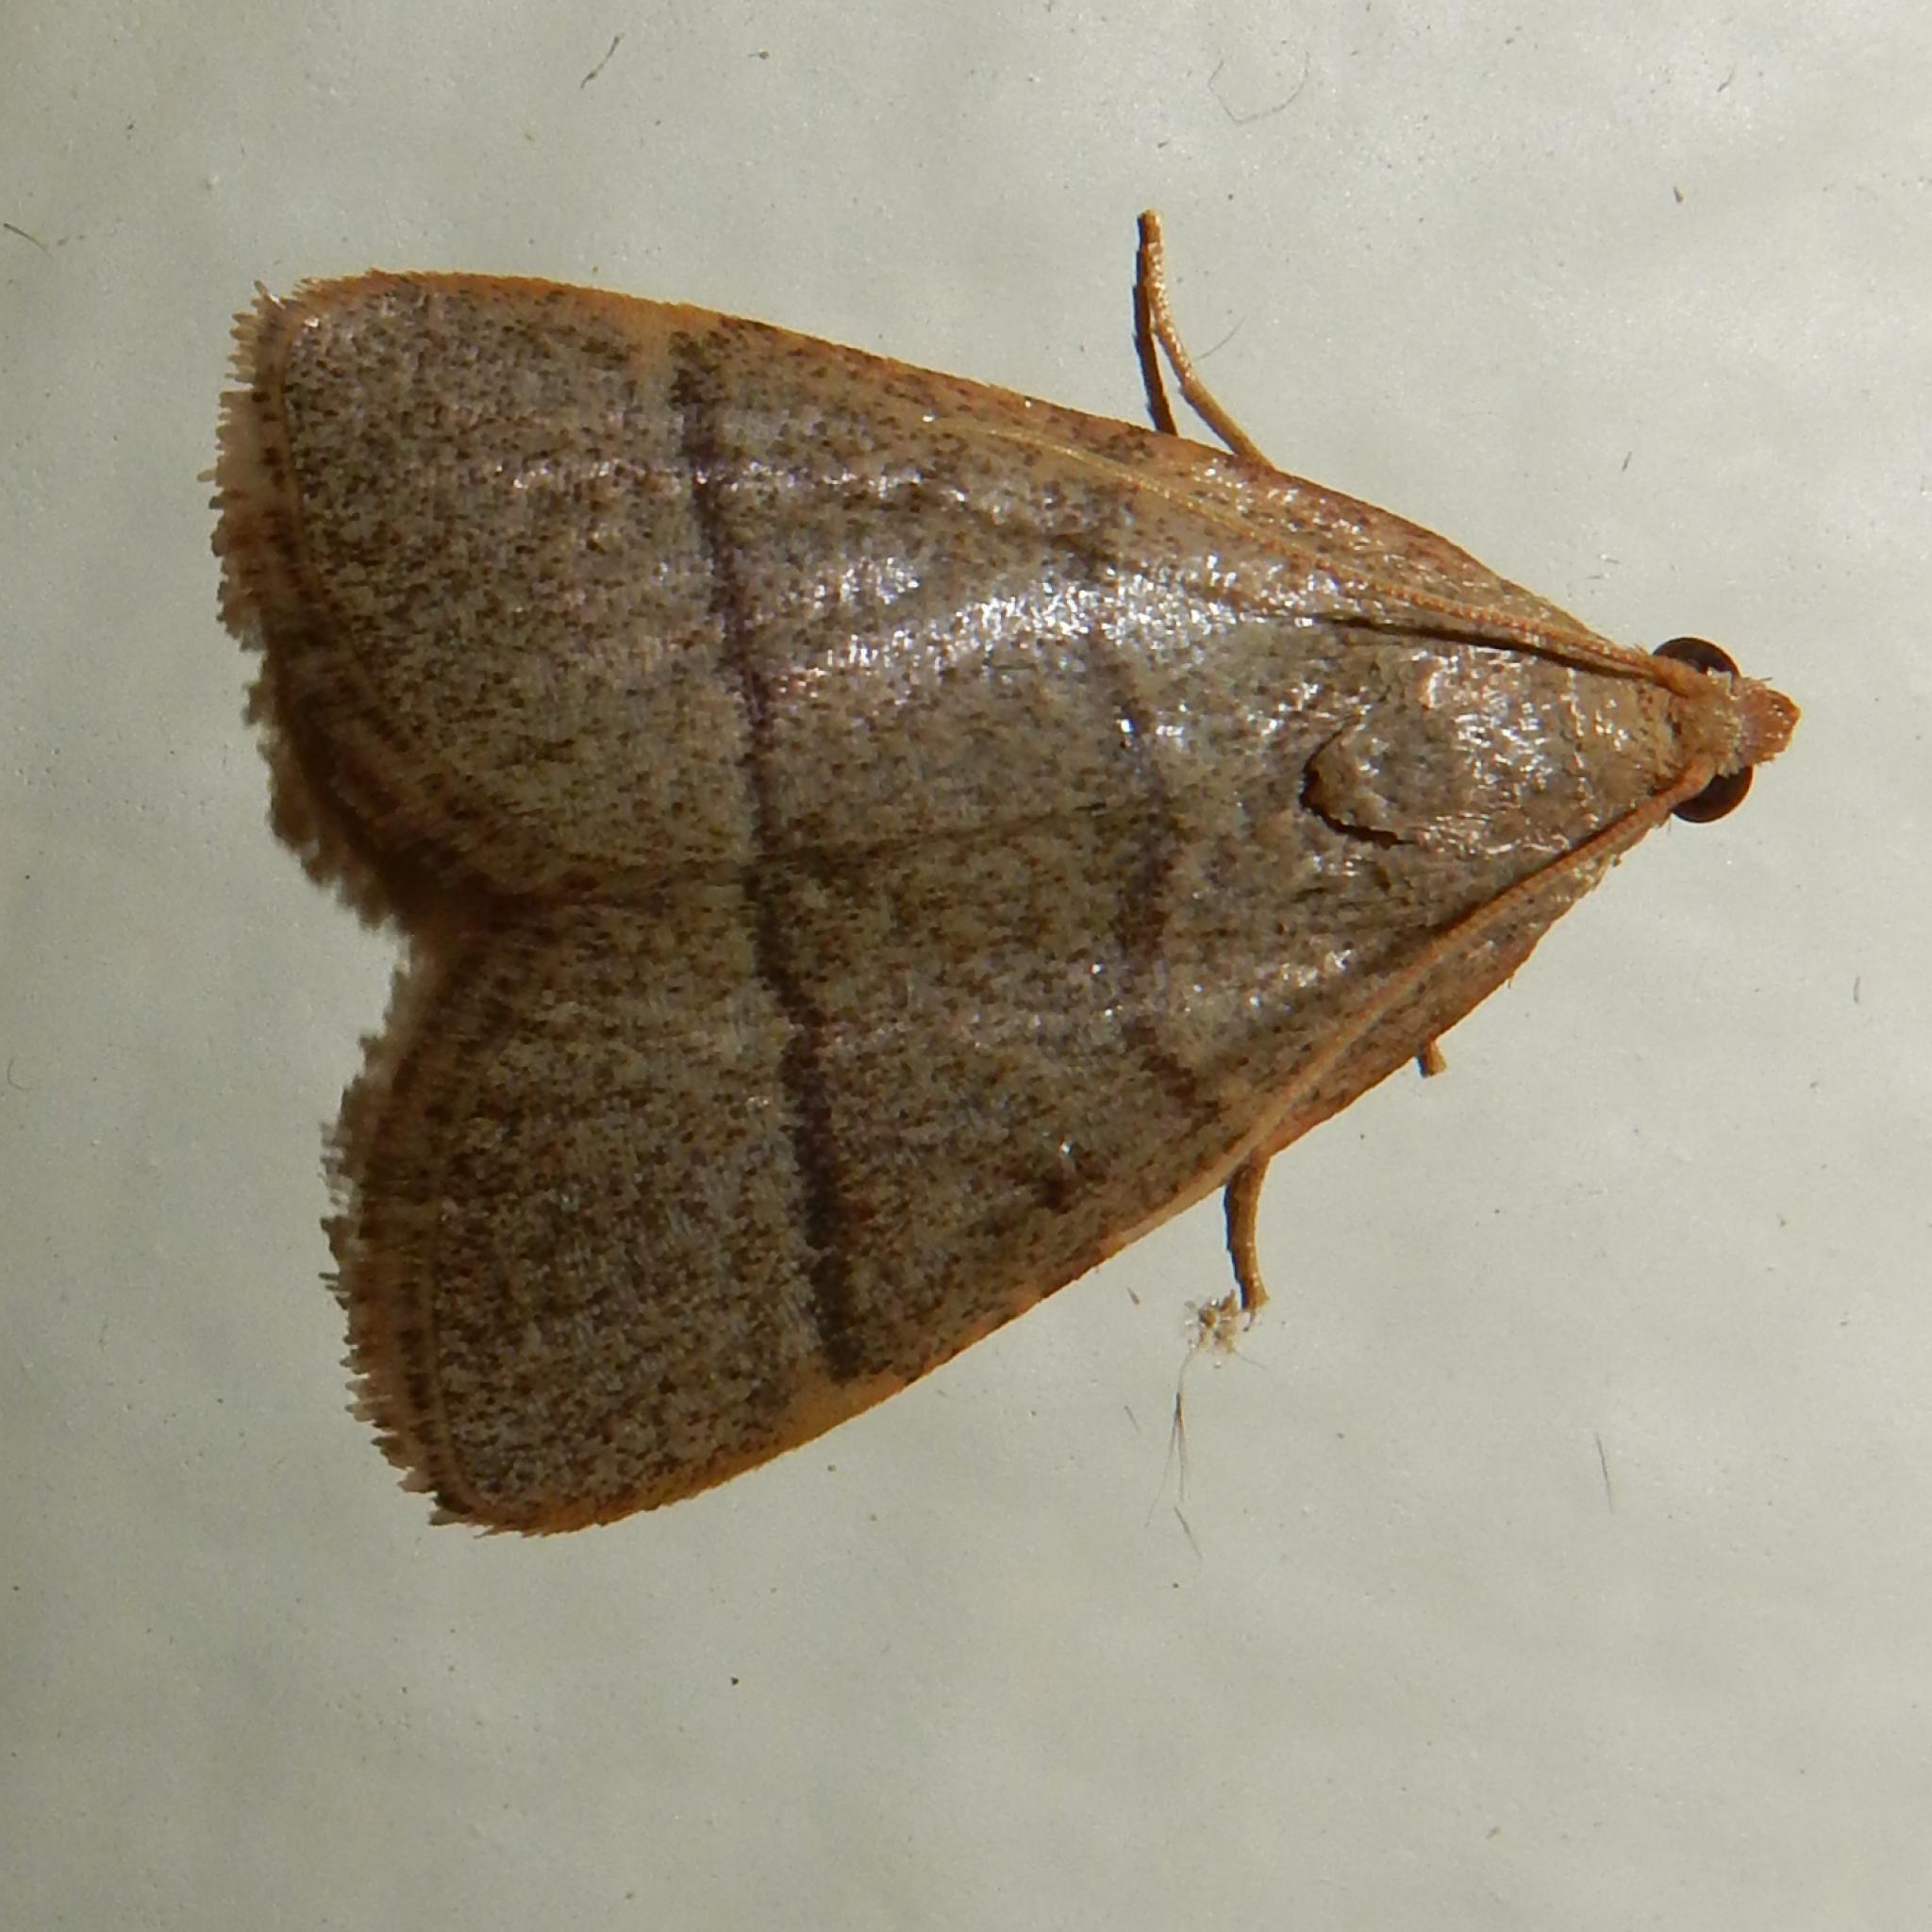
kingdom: Animalia
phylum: Arthropoda
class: Insecta
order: Lepidoptera
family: Pyralidae
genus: Hypsopygia
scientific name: Hypsopygia nostralis
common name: Southern hayworm moth
